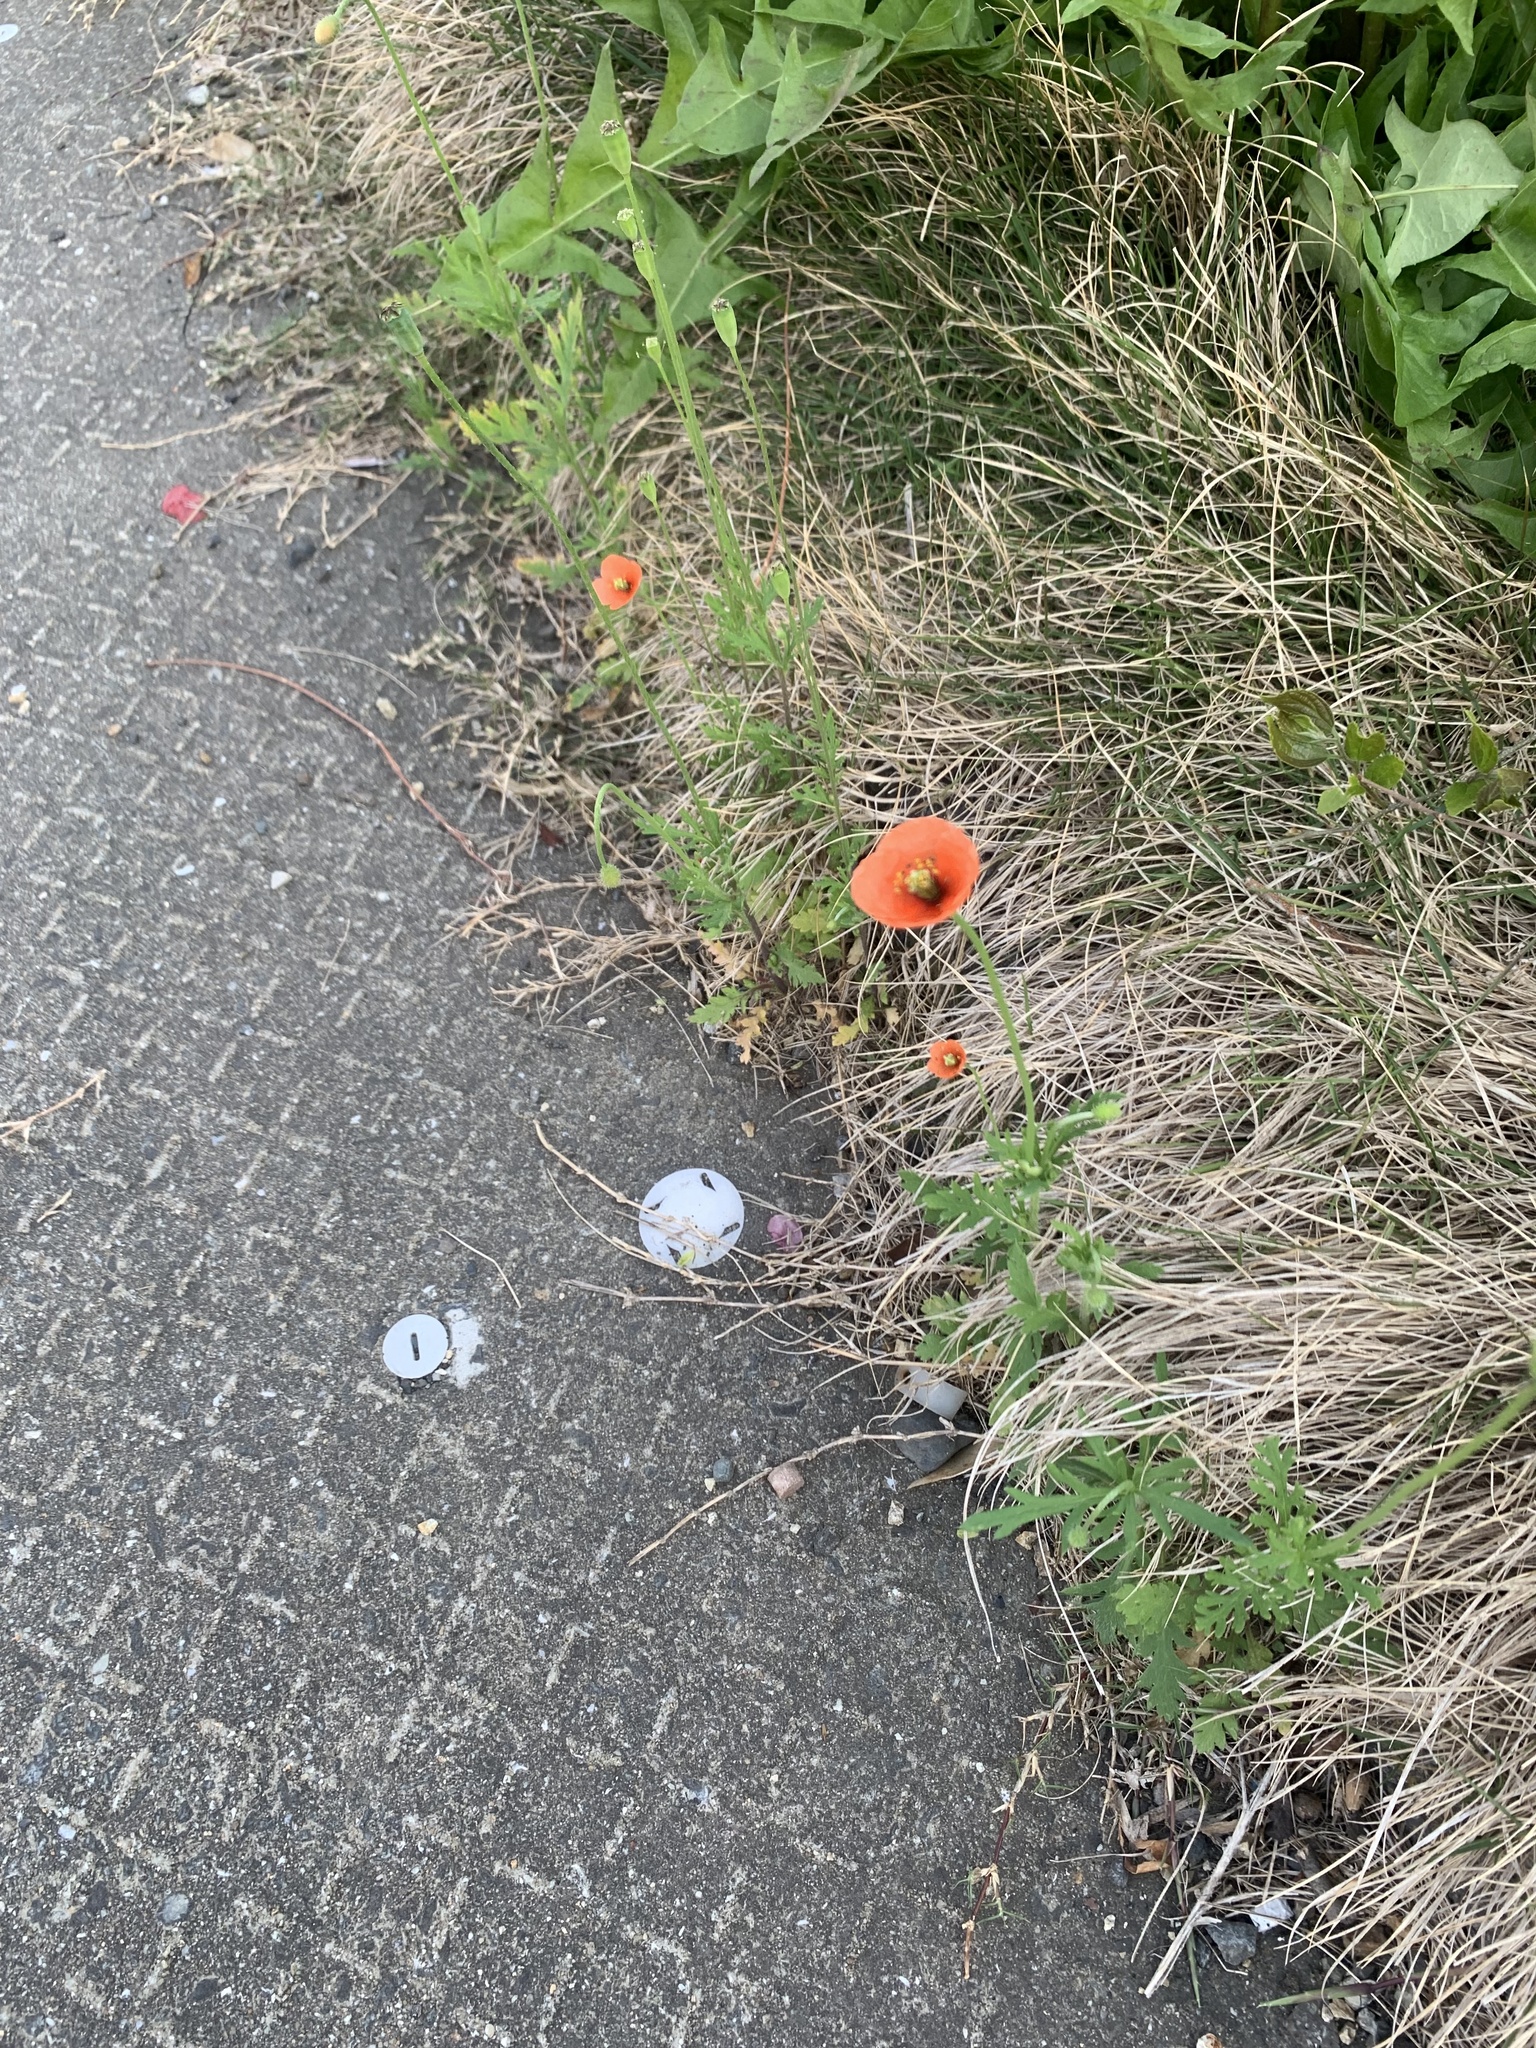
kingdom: Plantae
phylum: Tracheophyta
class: Magnoliopsida
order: Ranunculales
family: Papaveraceae
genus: Papaver
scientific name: Papaver dubium
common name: Long-headed poppy
